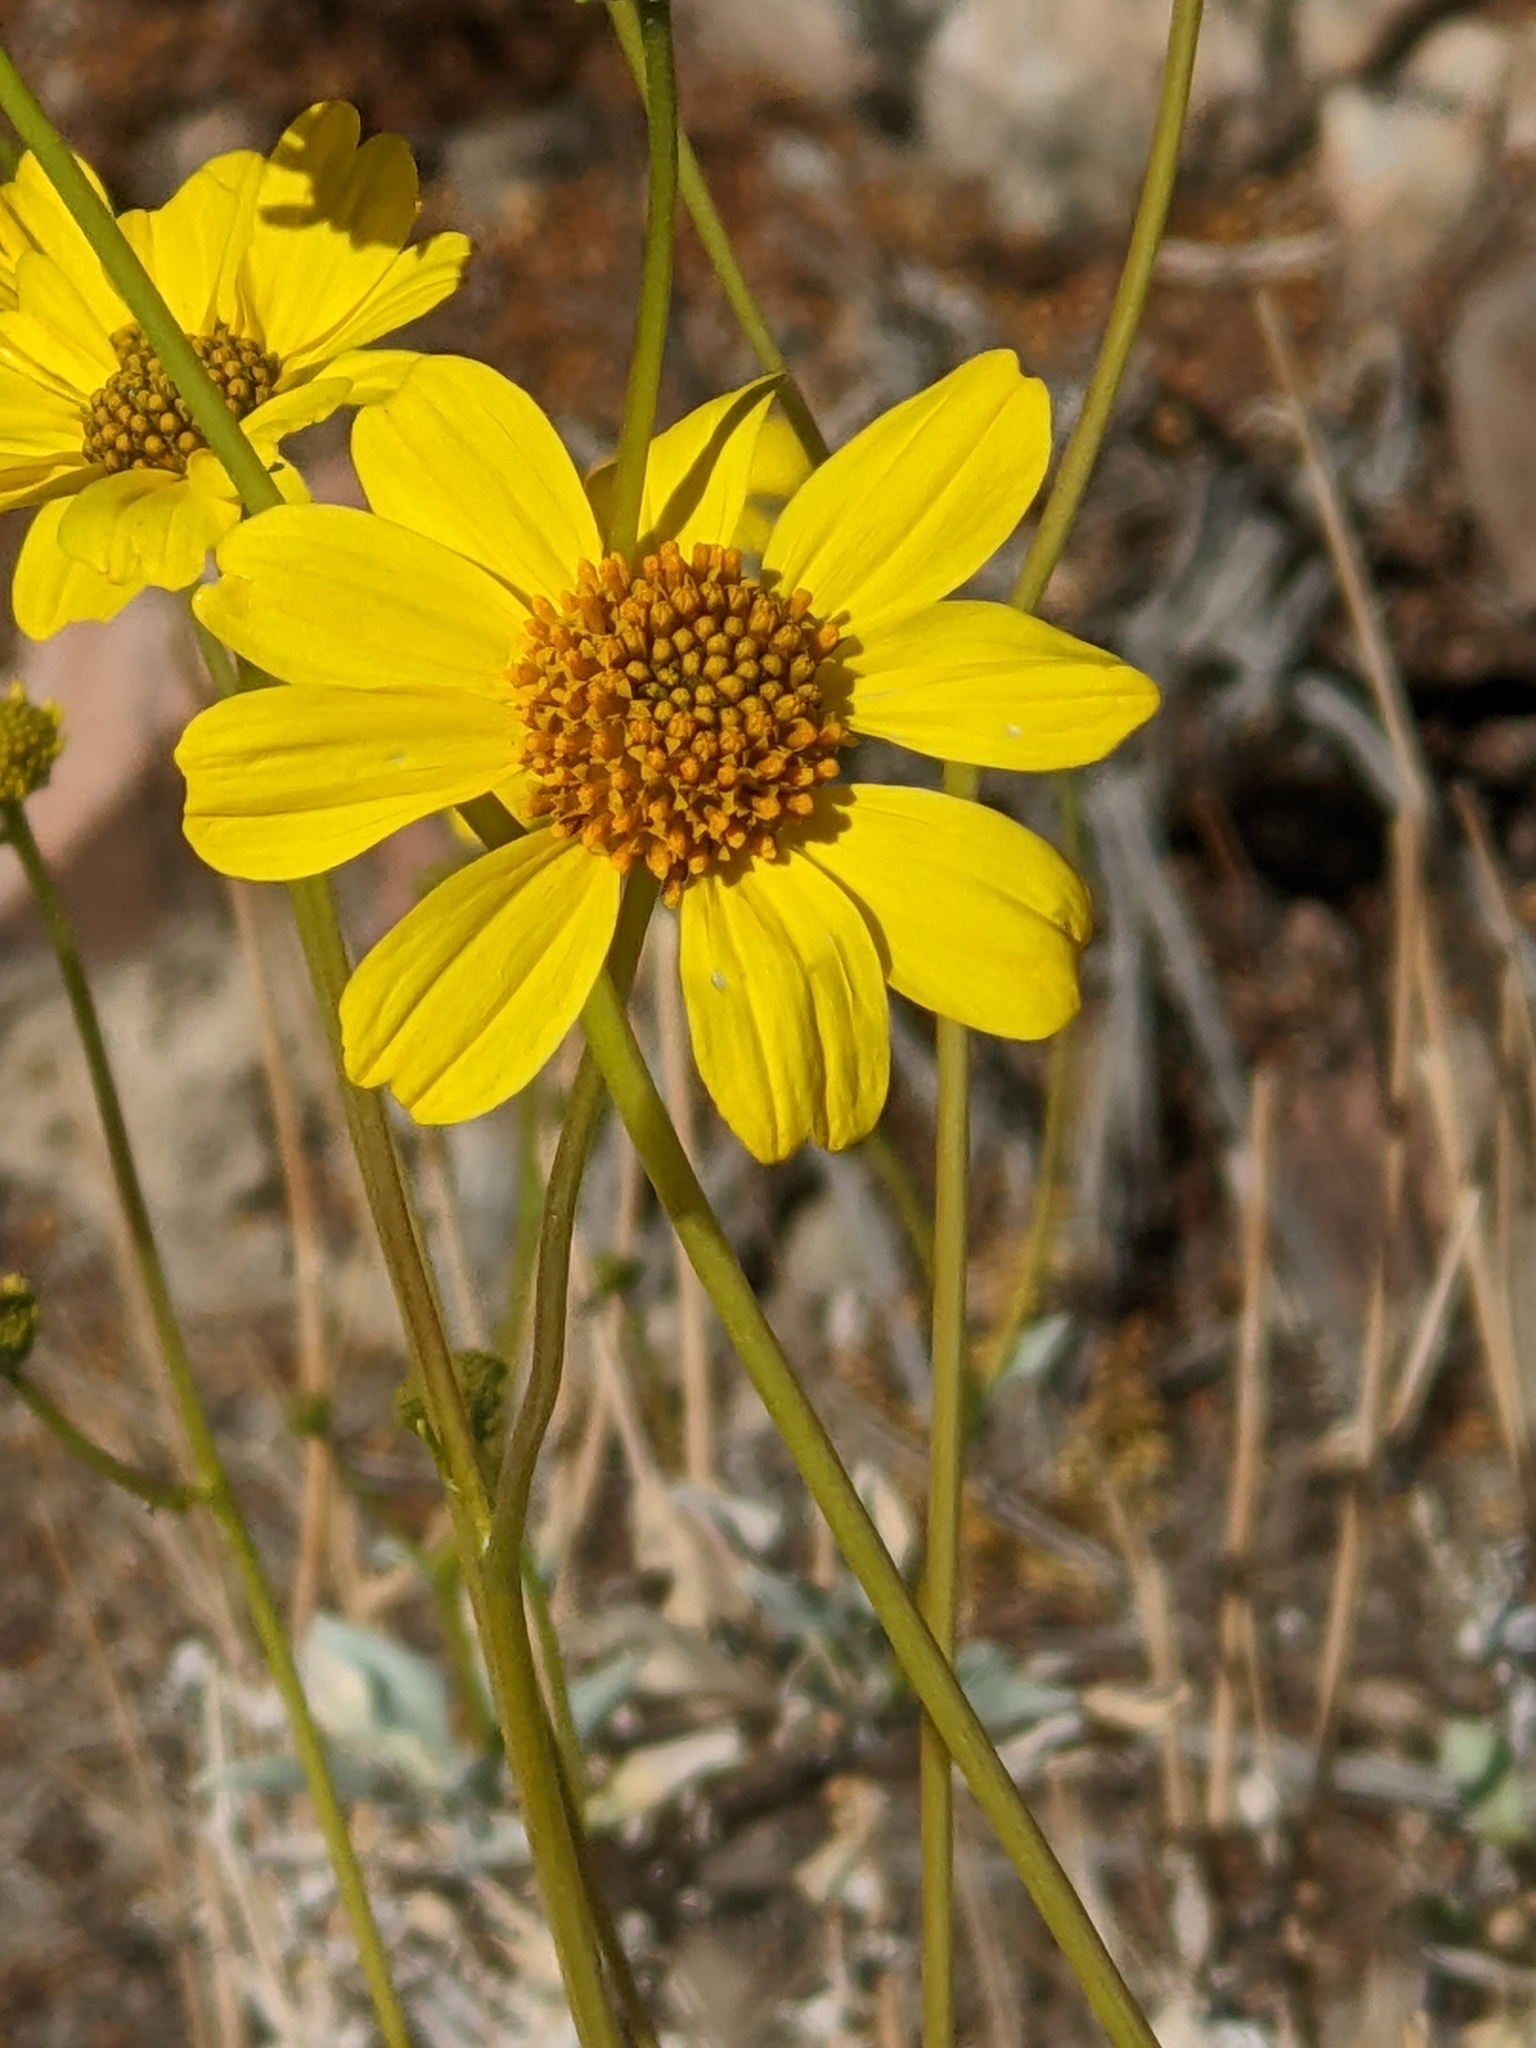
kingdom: Plantae
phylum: Tracheophyta
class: Magnoliopsida
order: Asterales
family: Asteraceae
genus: Encelia
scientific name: Encelia farinosa
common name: Brittlebush
